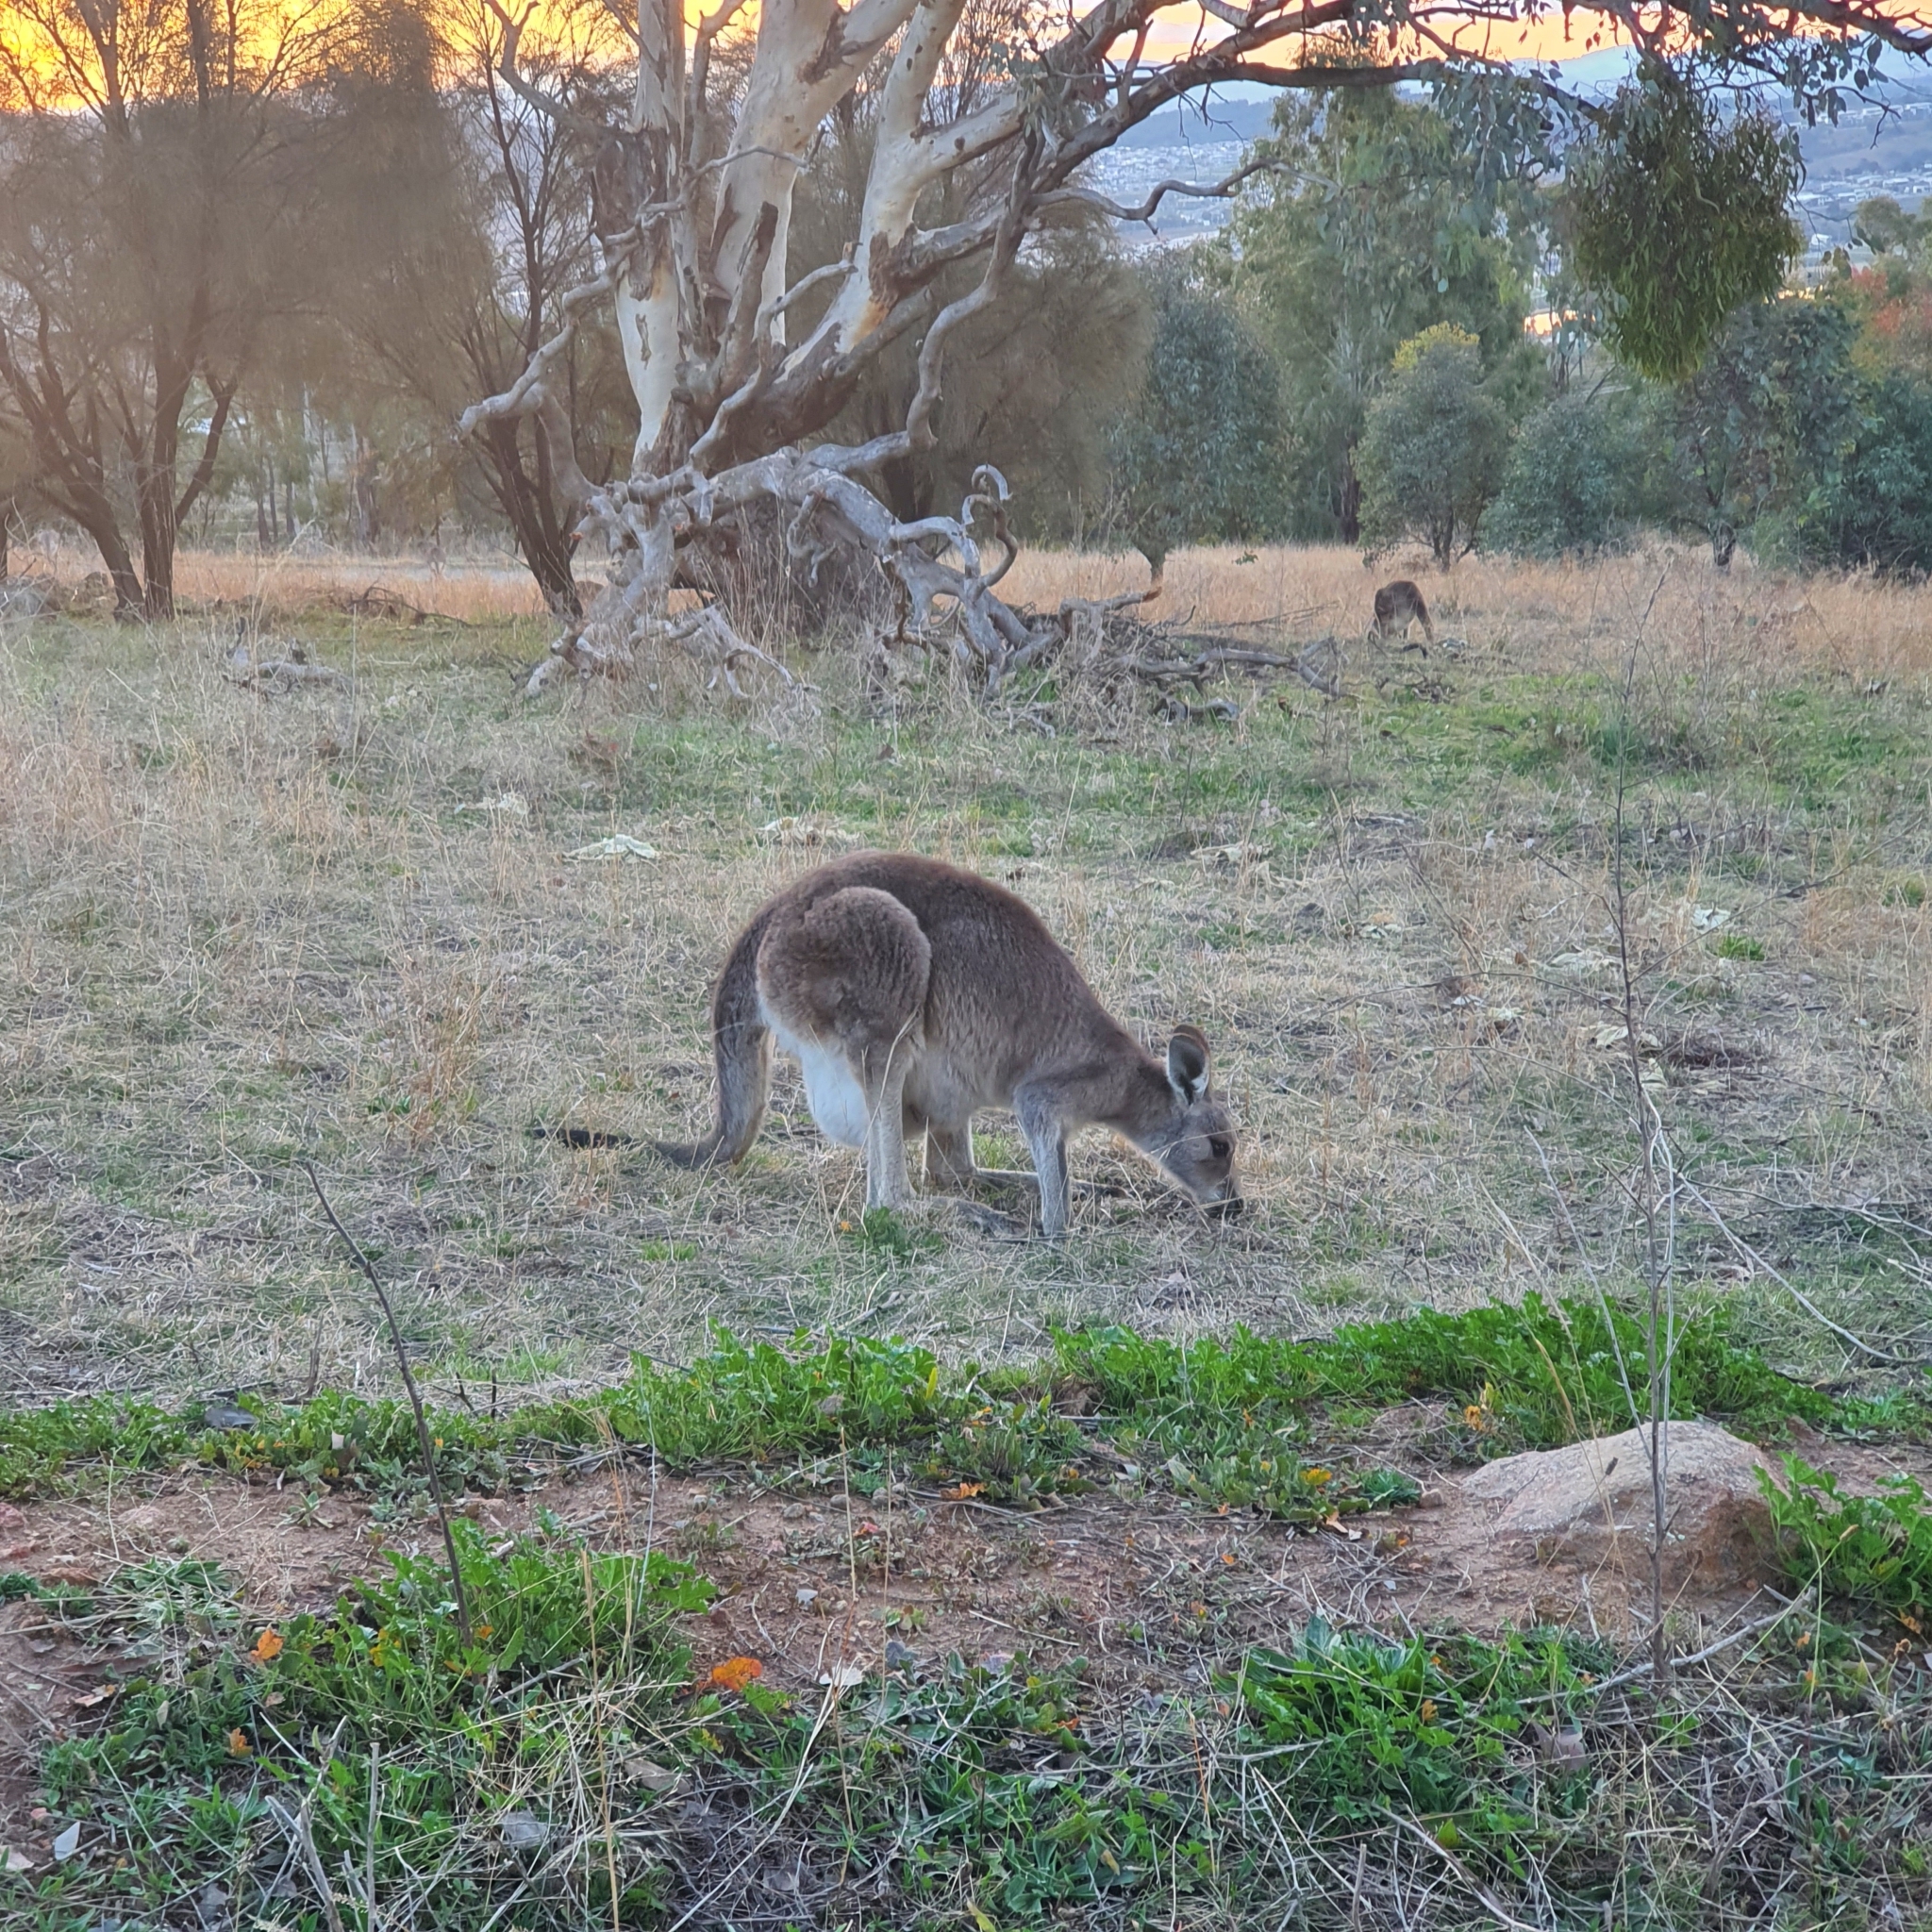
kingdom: Animalia
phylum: Chordata
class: Mammalia
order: Diprotodontia
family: Macropodidae
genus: Macropus
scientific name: Macropus giganteus
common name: Eastern grey kangaroo
